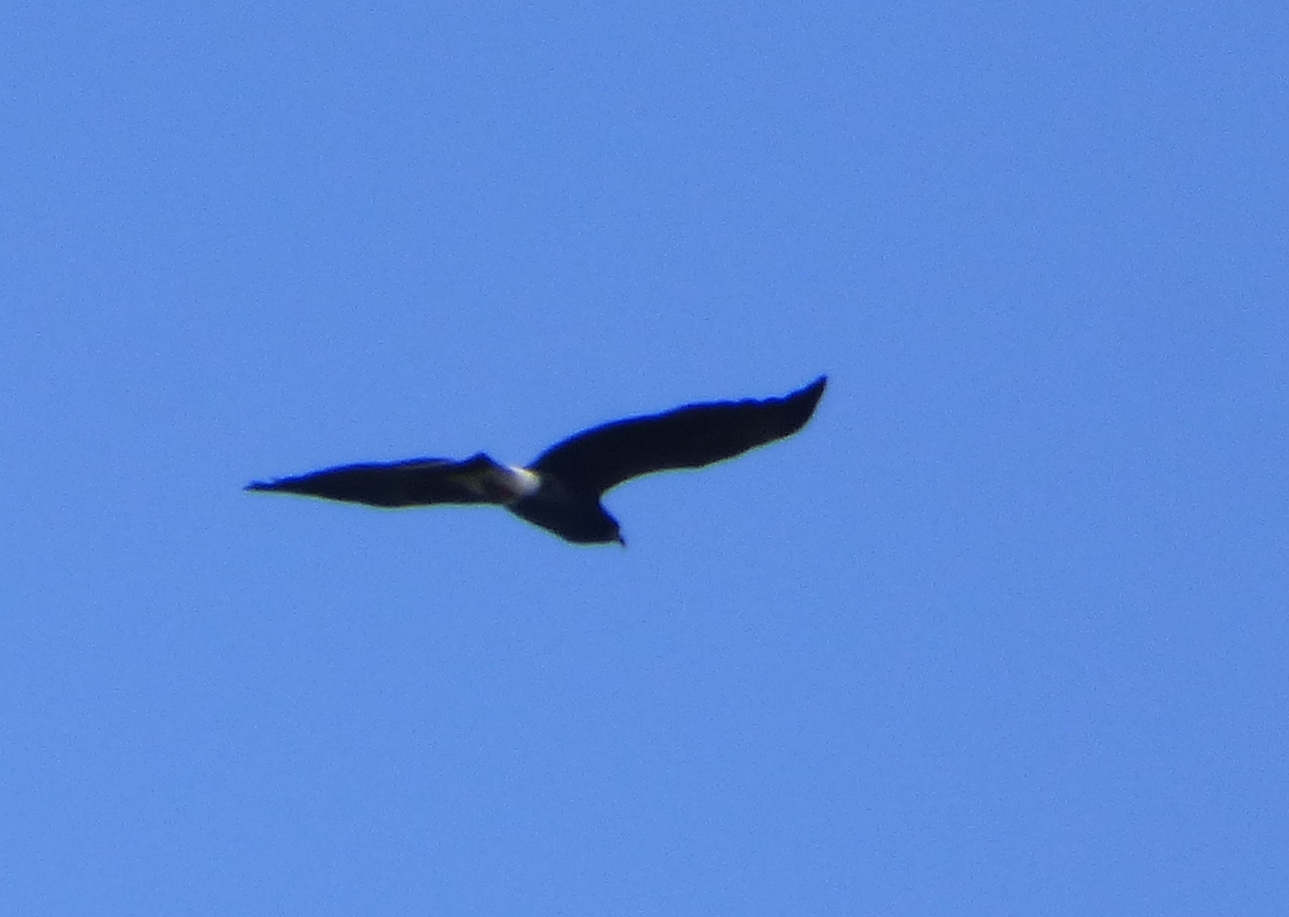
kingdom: Animalia
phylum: Chordata
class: Aves
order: Accipitriformes
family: Accipitridae
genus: Rostrhamus
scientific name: Rostrhamus sociabilis
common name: Snail kite
